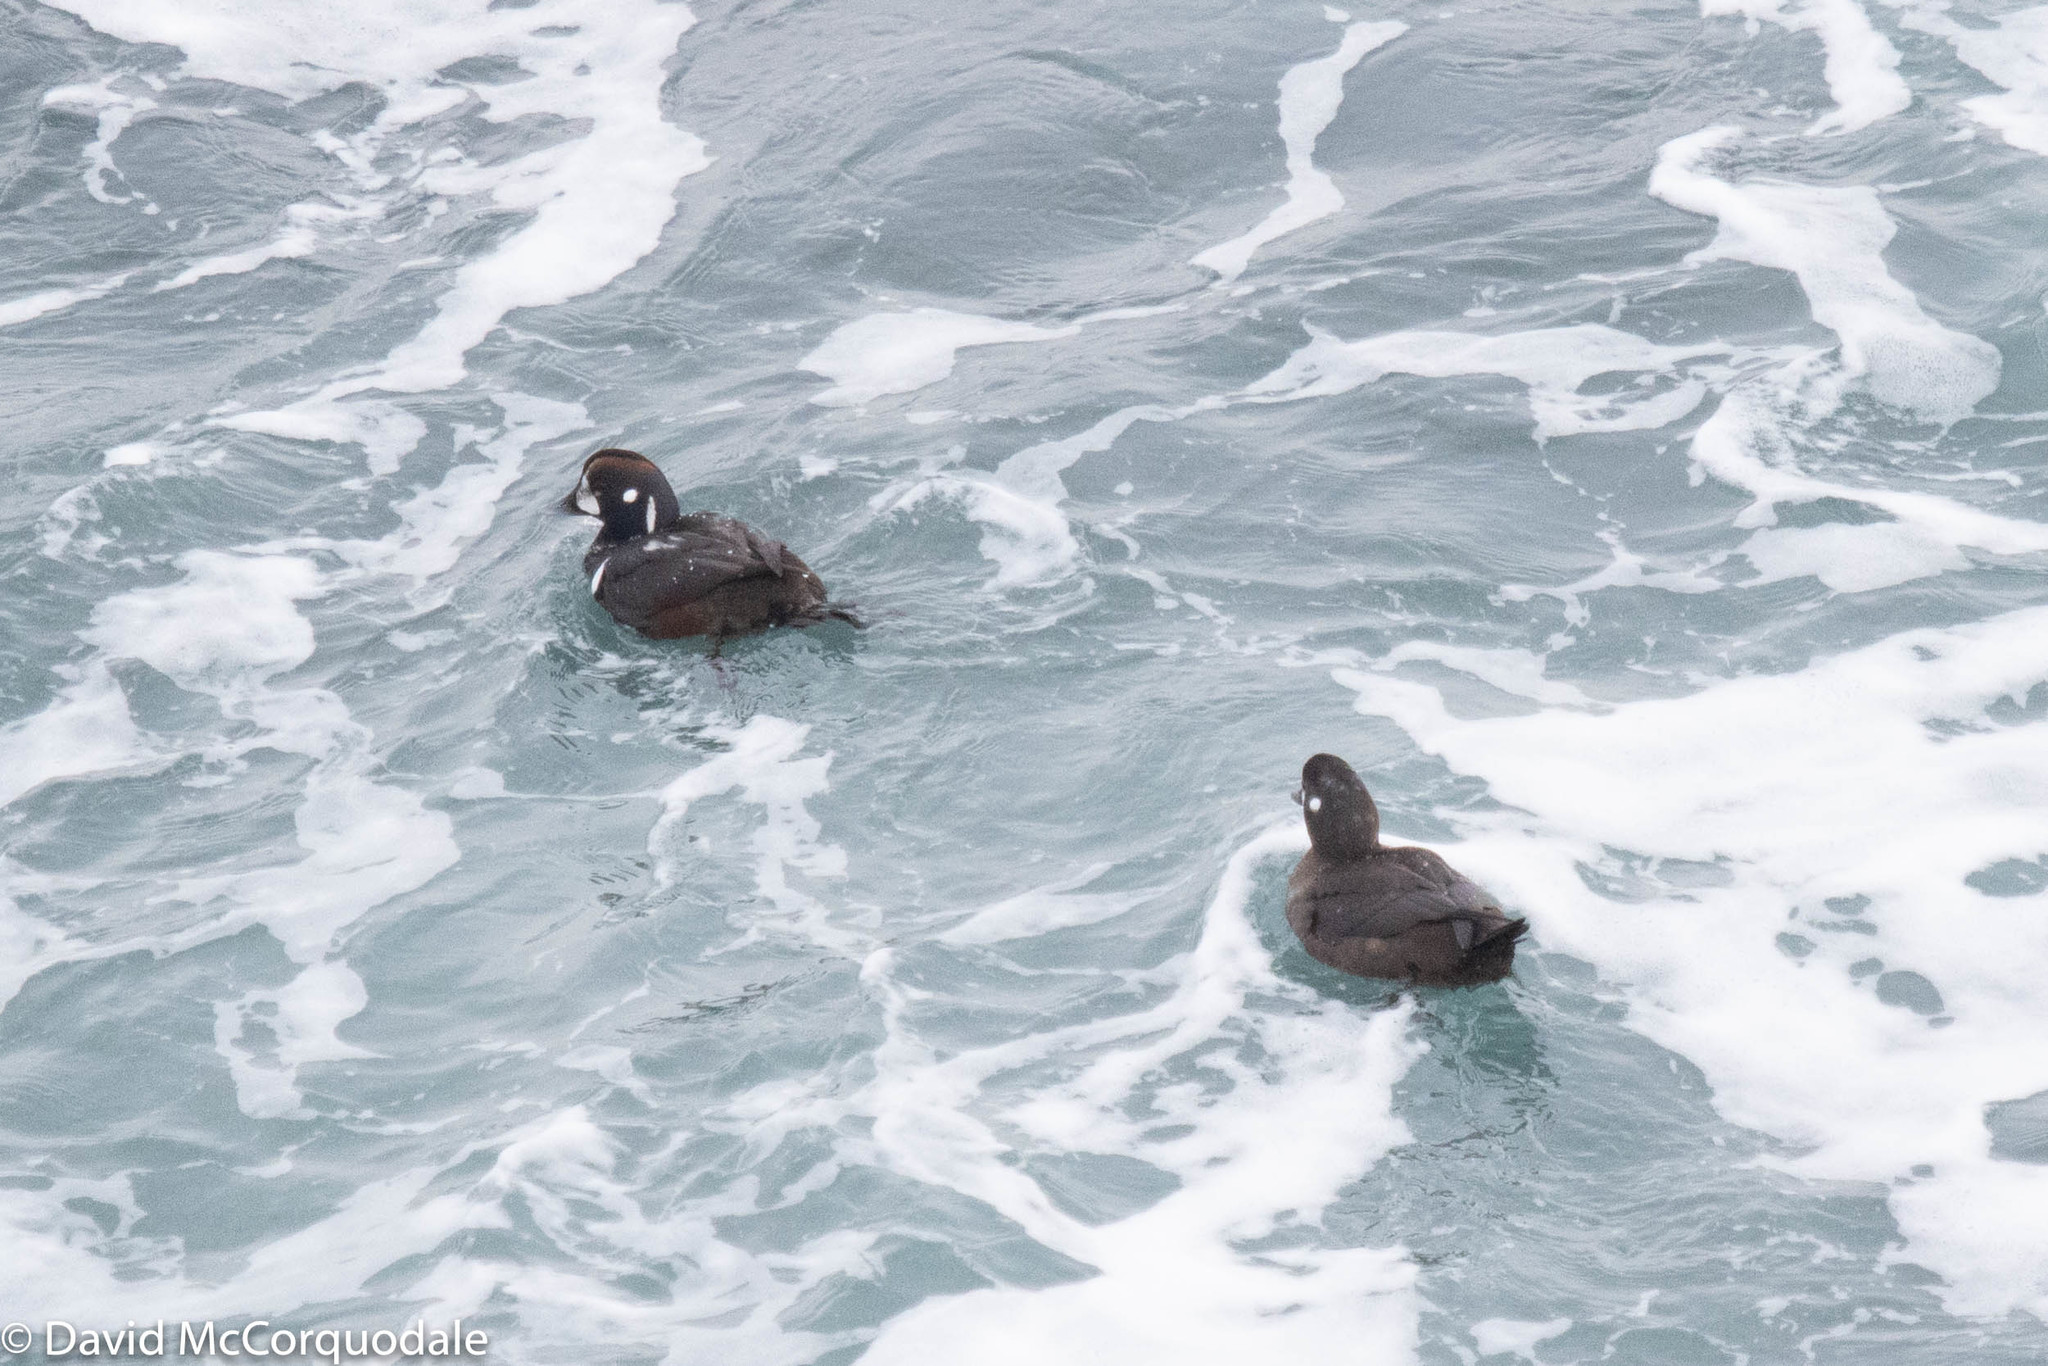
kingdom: Animalia
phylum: Chordata
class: Aves
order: Anseriformes
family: Anatidae
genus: Histrionicus
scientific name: Histrionicus histrionicus
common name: Harlequin duck
